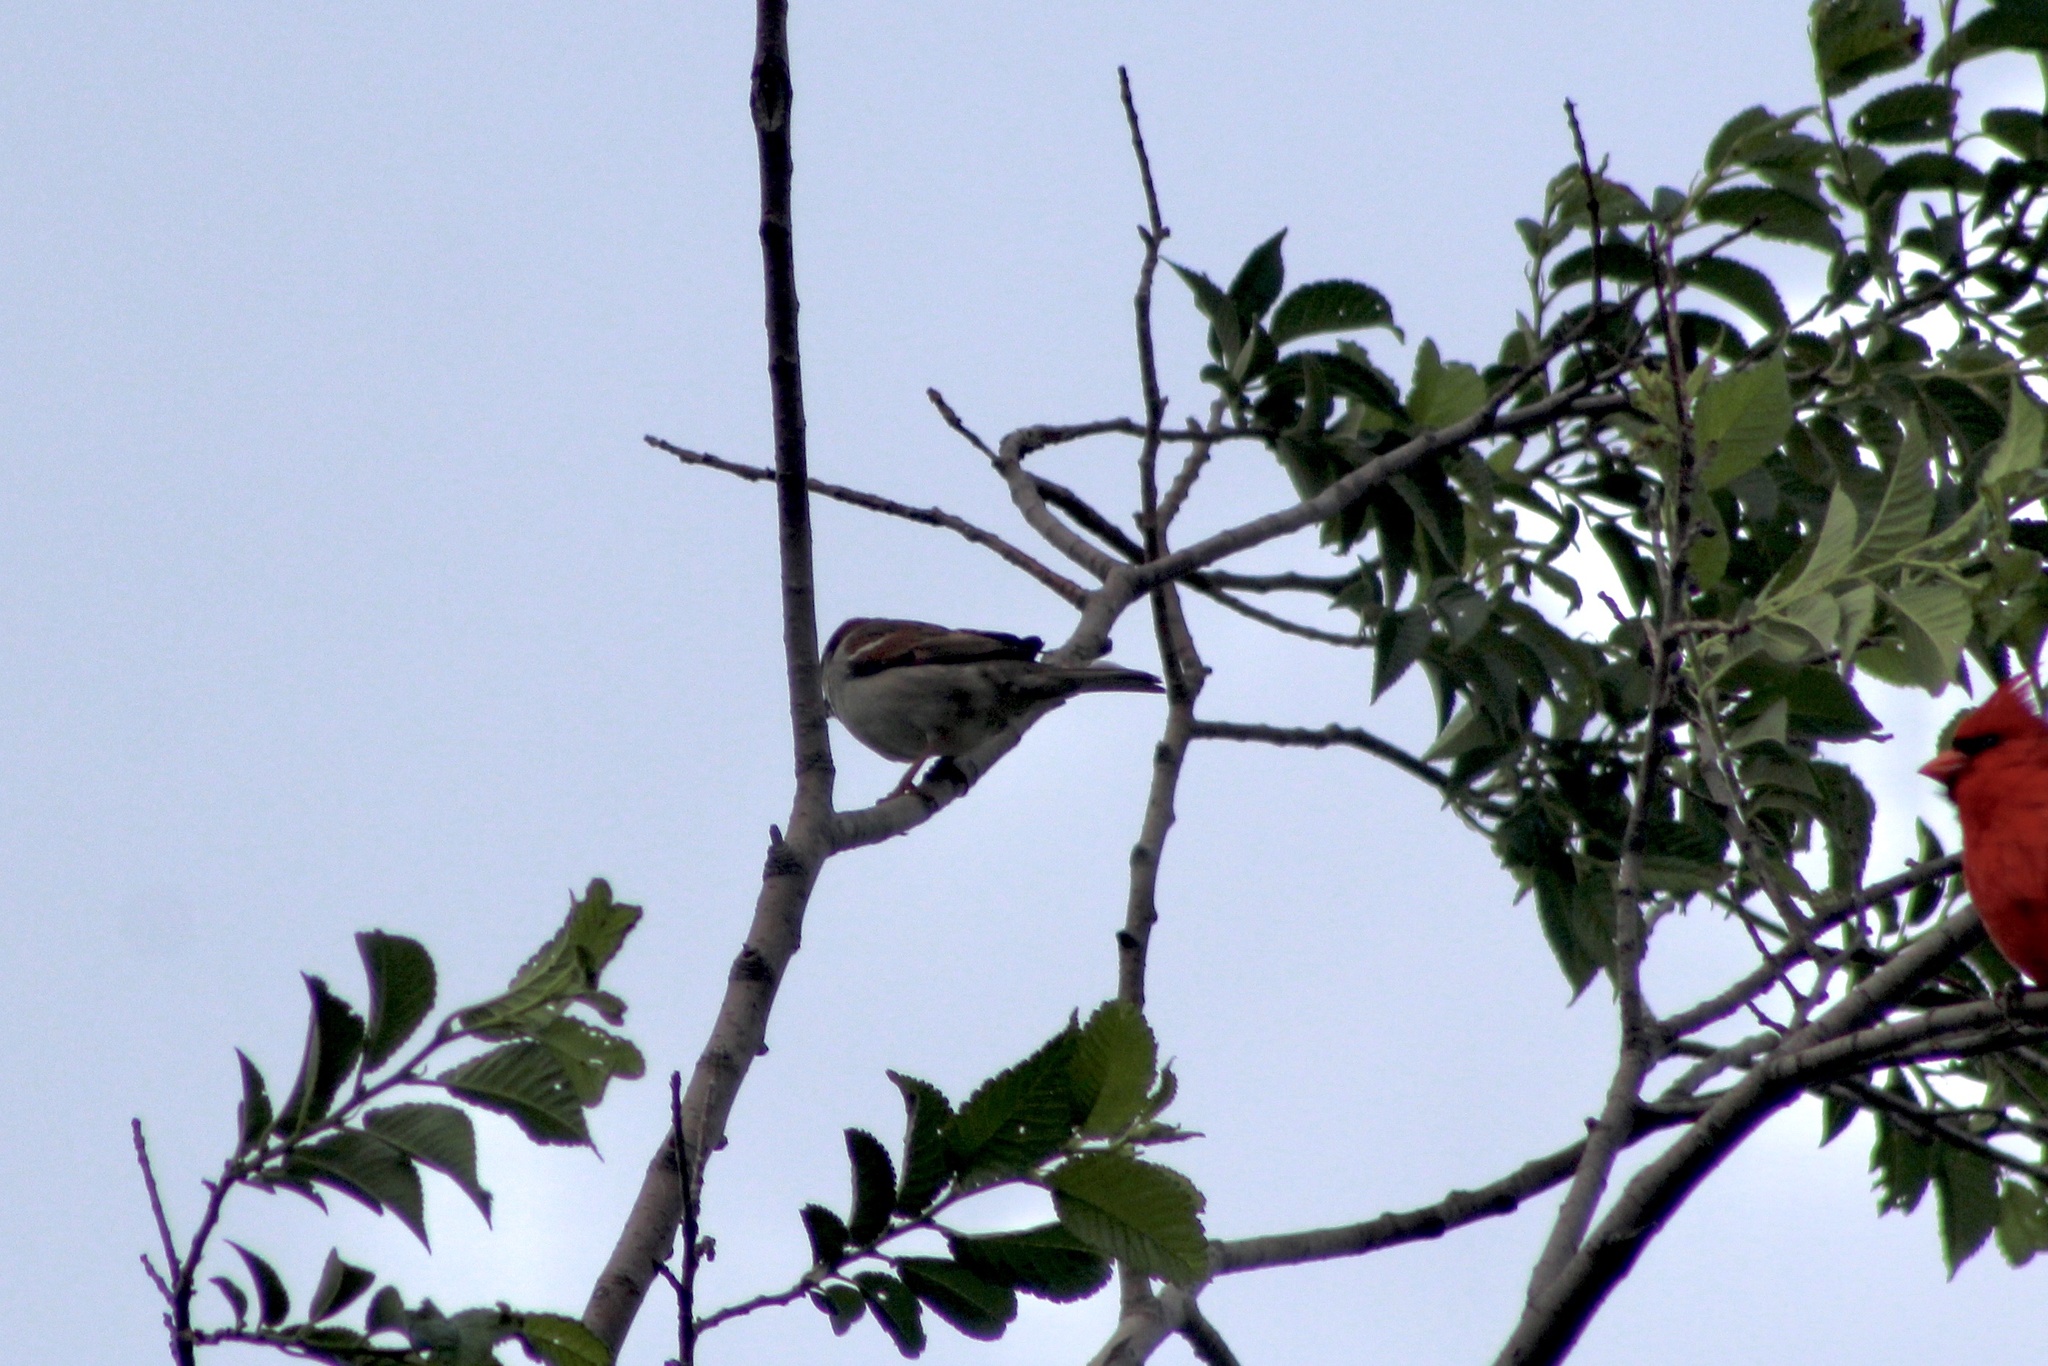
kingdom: Animalia
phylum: Chordata
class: Aves
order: Passeriformes
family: Passeridae
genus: Passer
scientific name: Passer domesticus
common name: House sparrow
